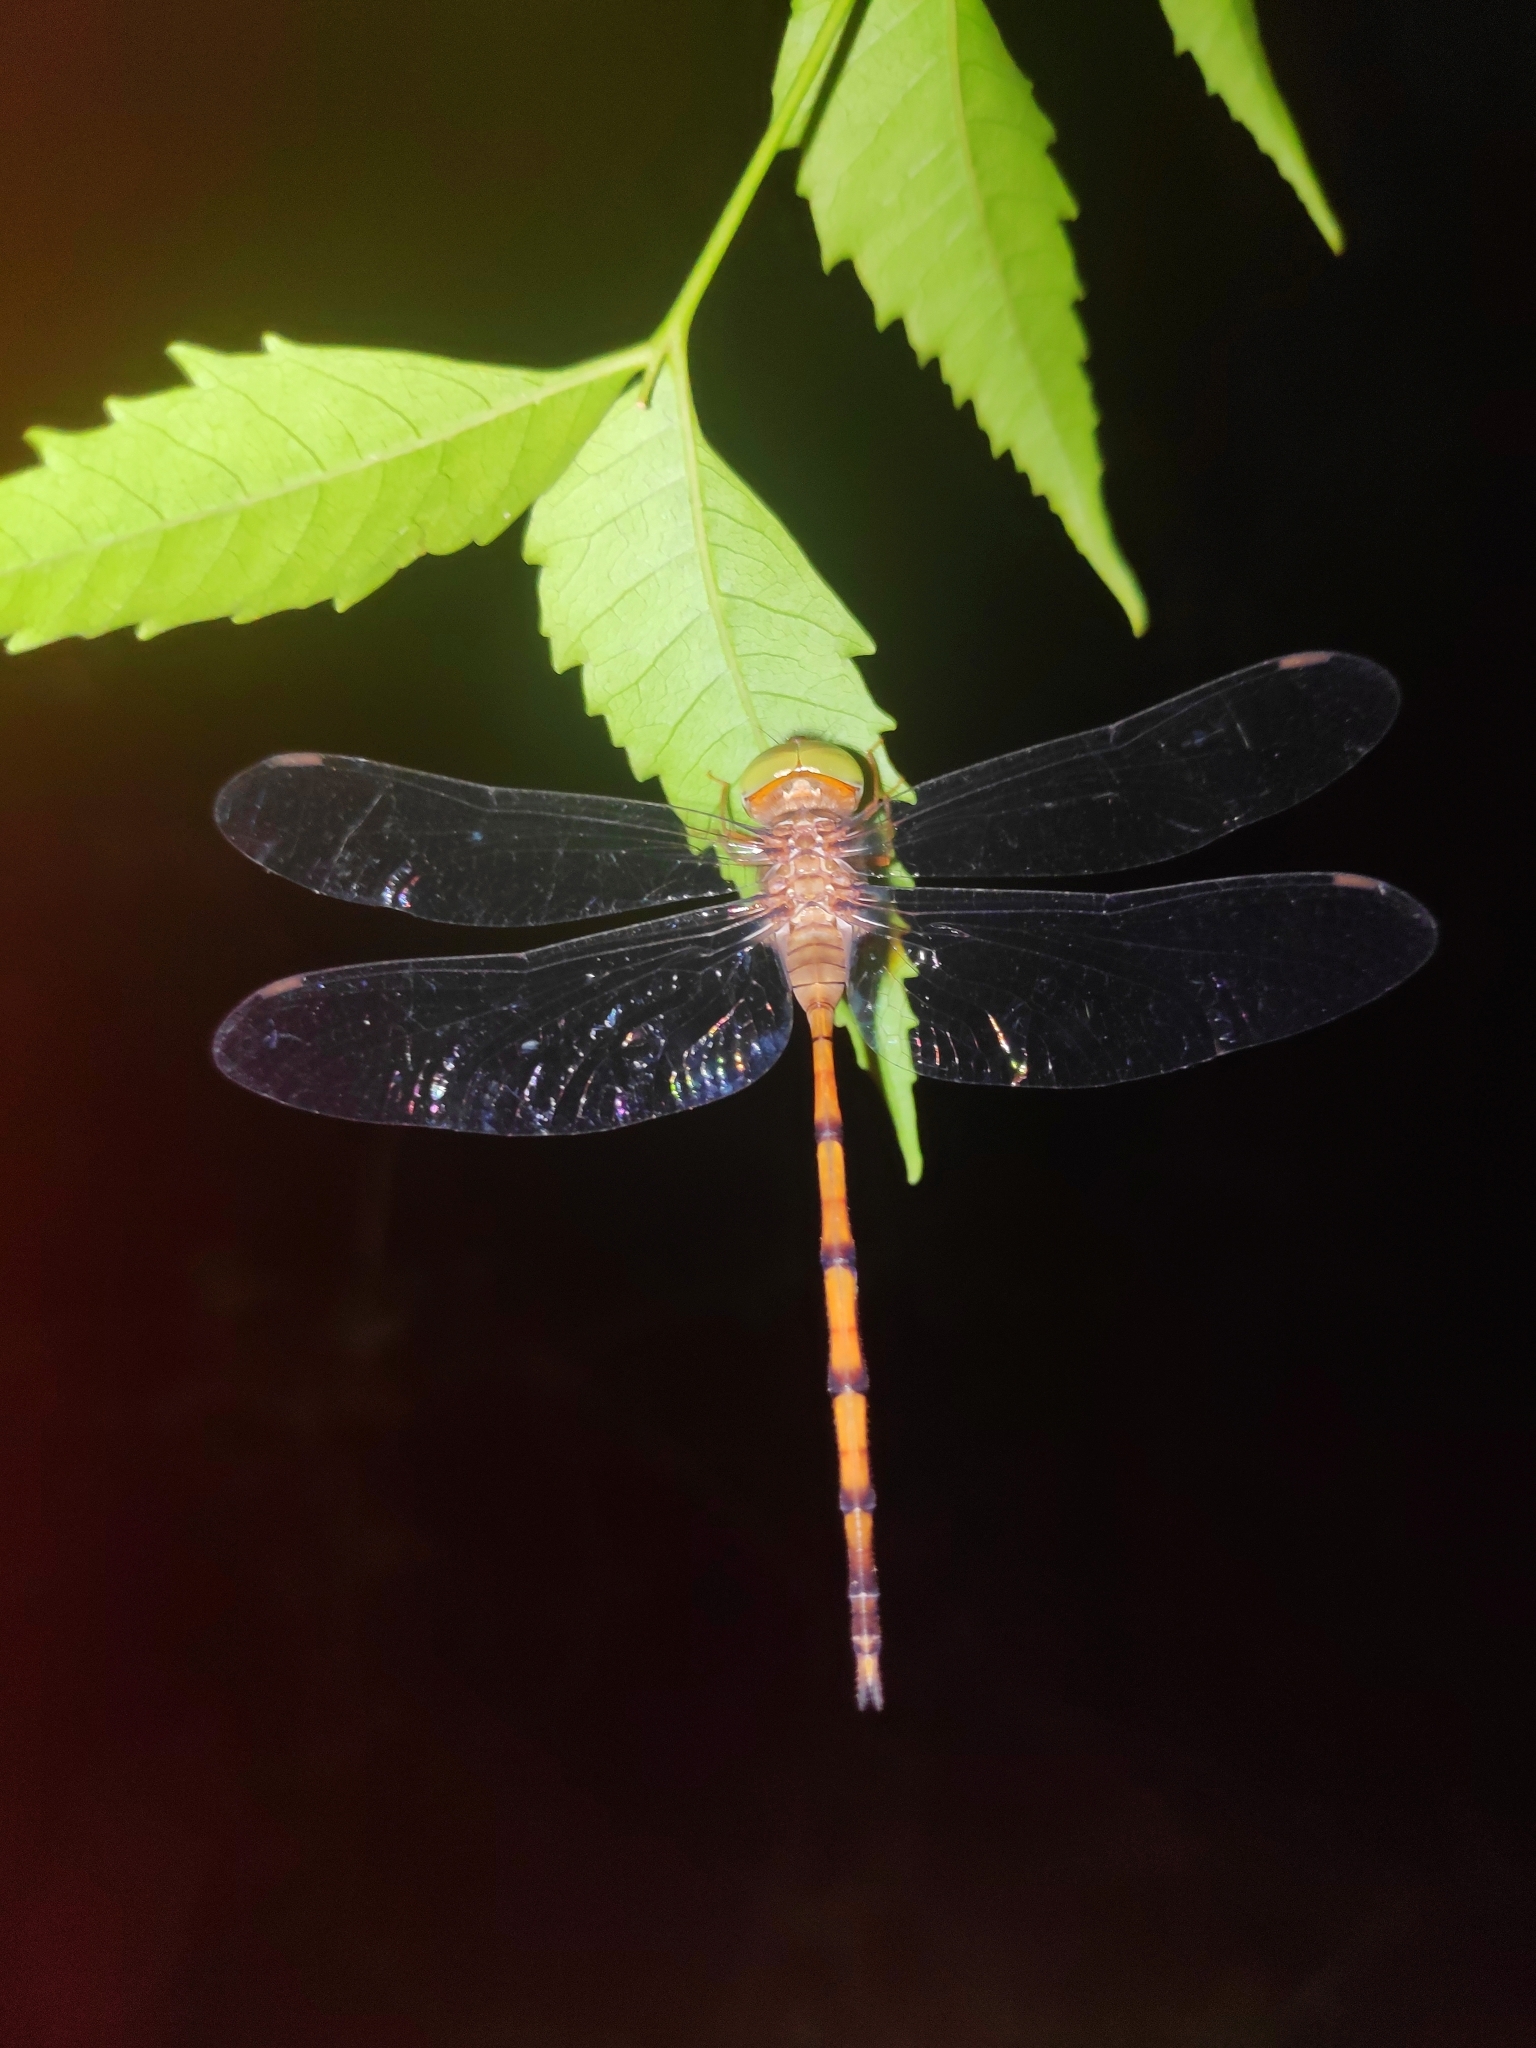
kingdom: Animalia
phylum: Arthropoda
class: Insecta
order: Odonata
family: Libellulidae
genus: Zyxomma
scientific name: Zyxomma petiolatum
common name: Dingy dusk-darter
